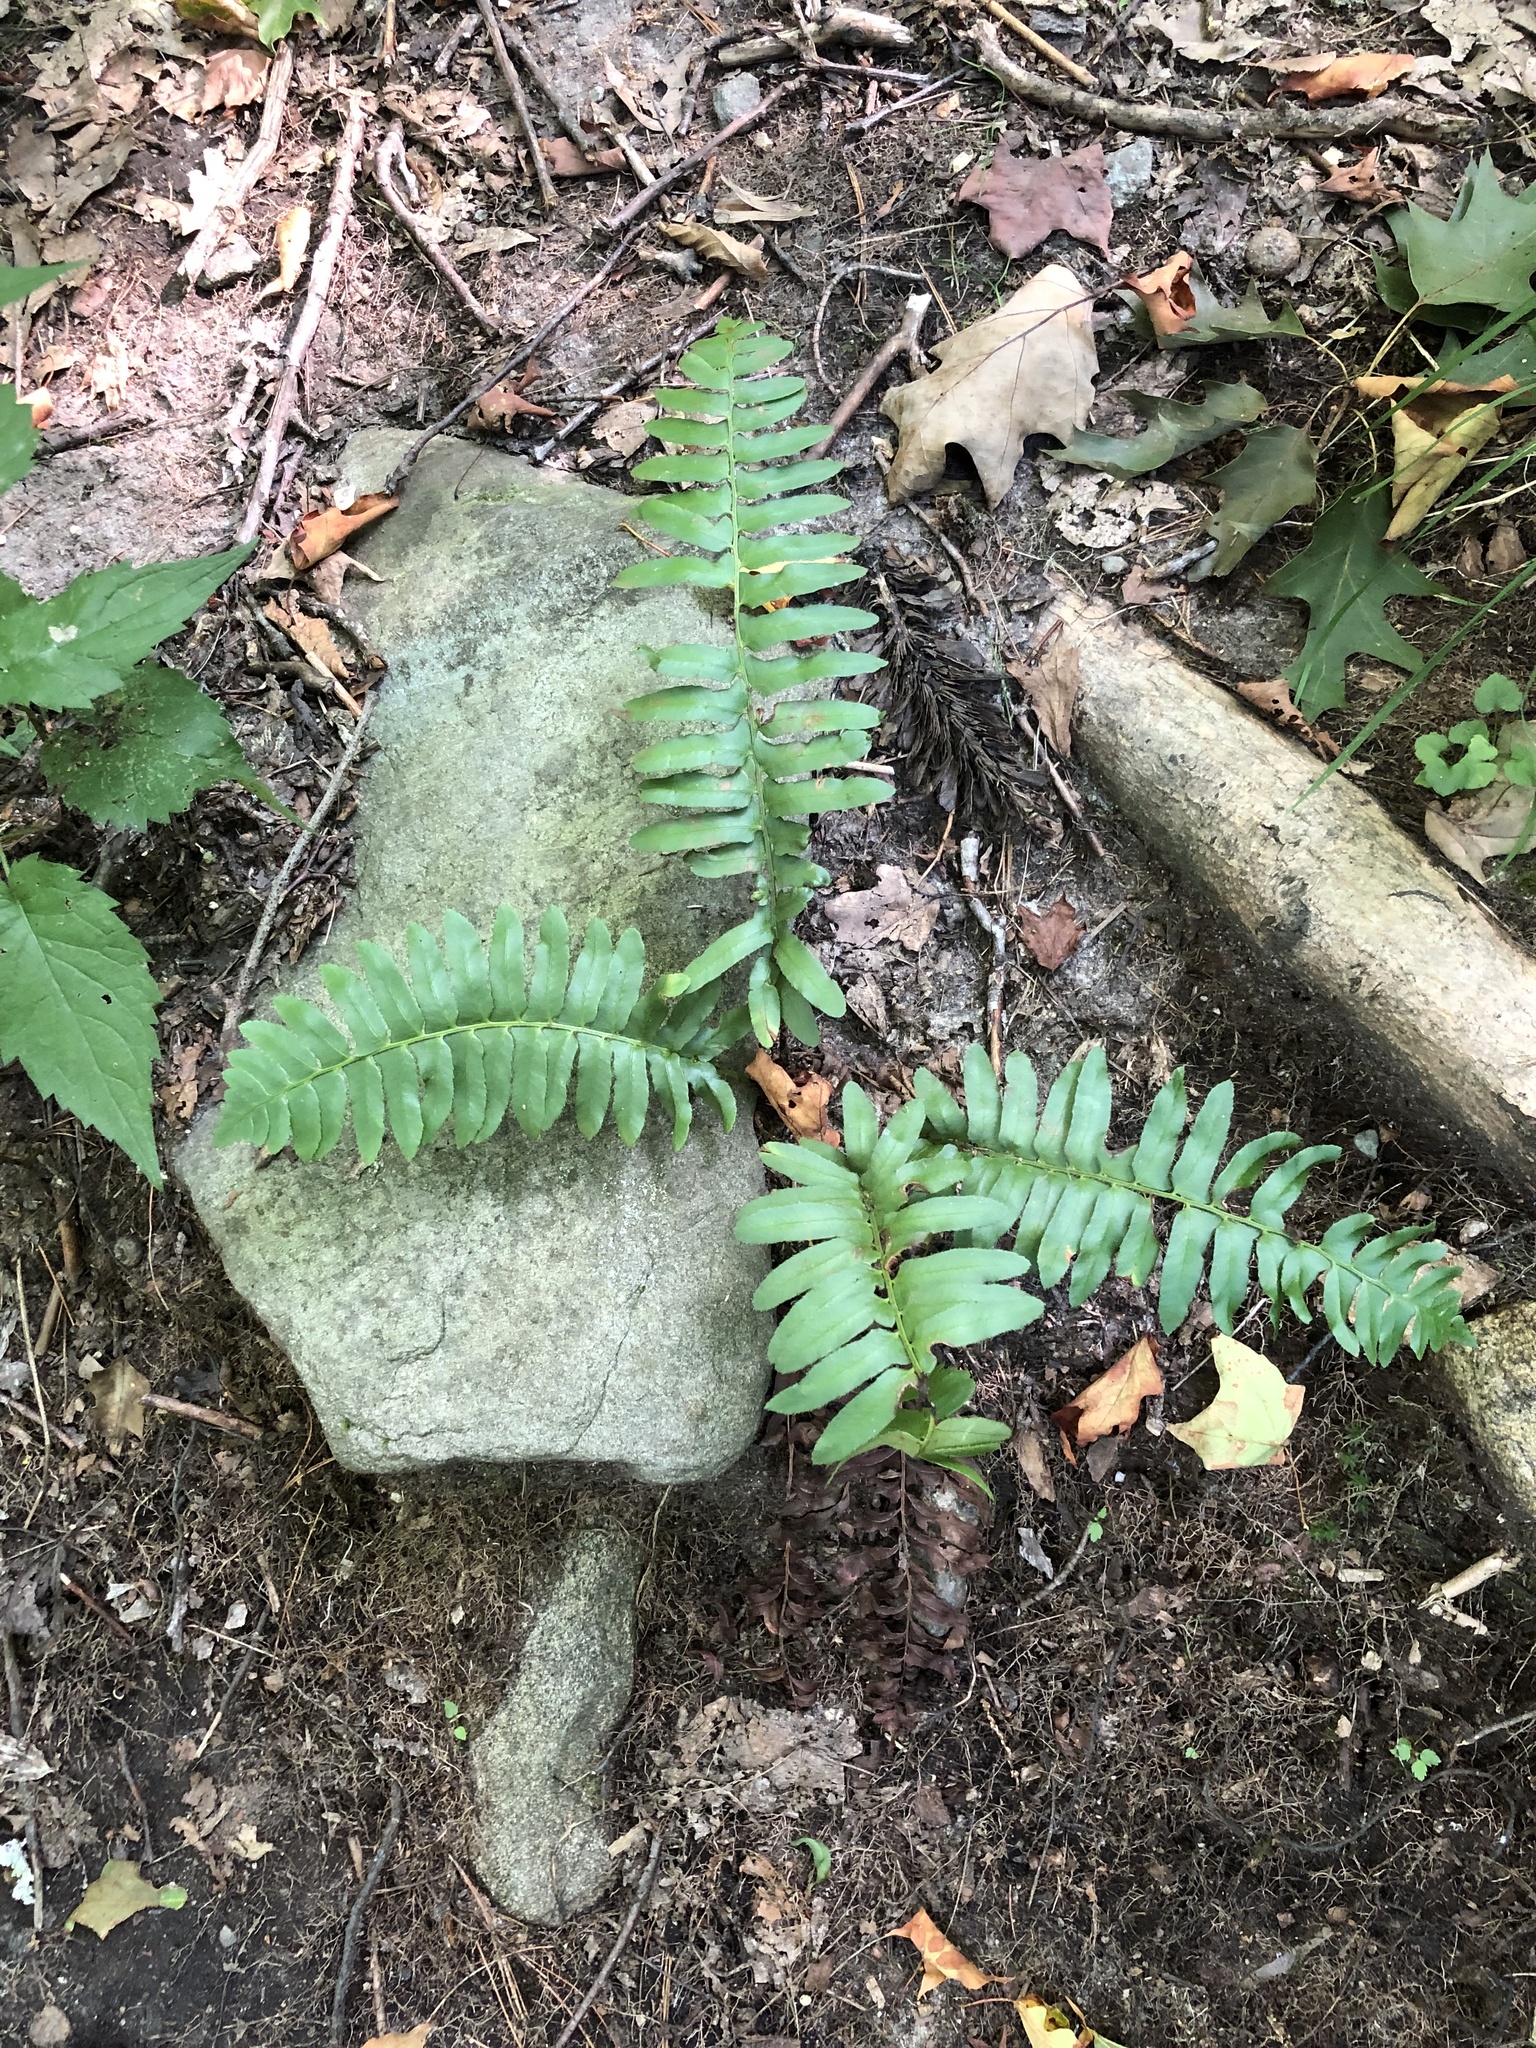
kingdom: Plantae
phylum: Tracheophyta
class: Polypodiopsida
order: Polypodiales
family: Dryopteridaceae
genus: Polystichum
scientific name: Polystichum acrostichoides
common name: Christmas fern
